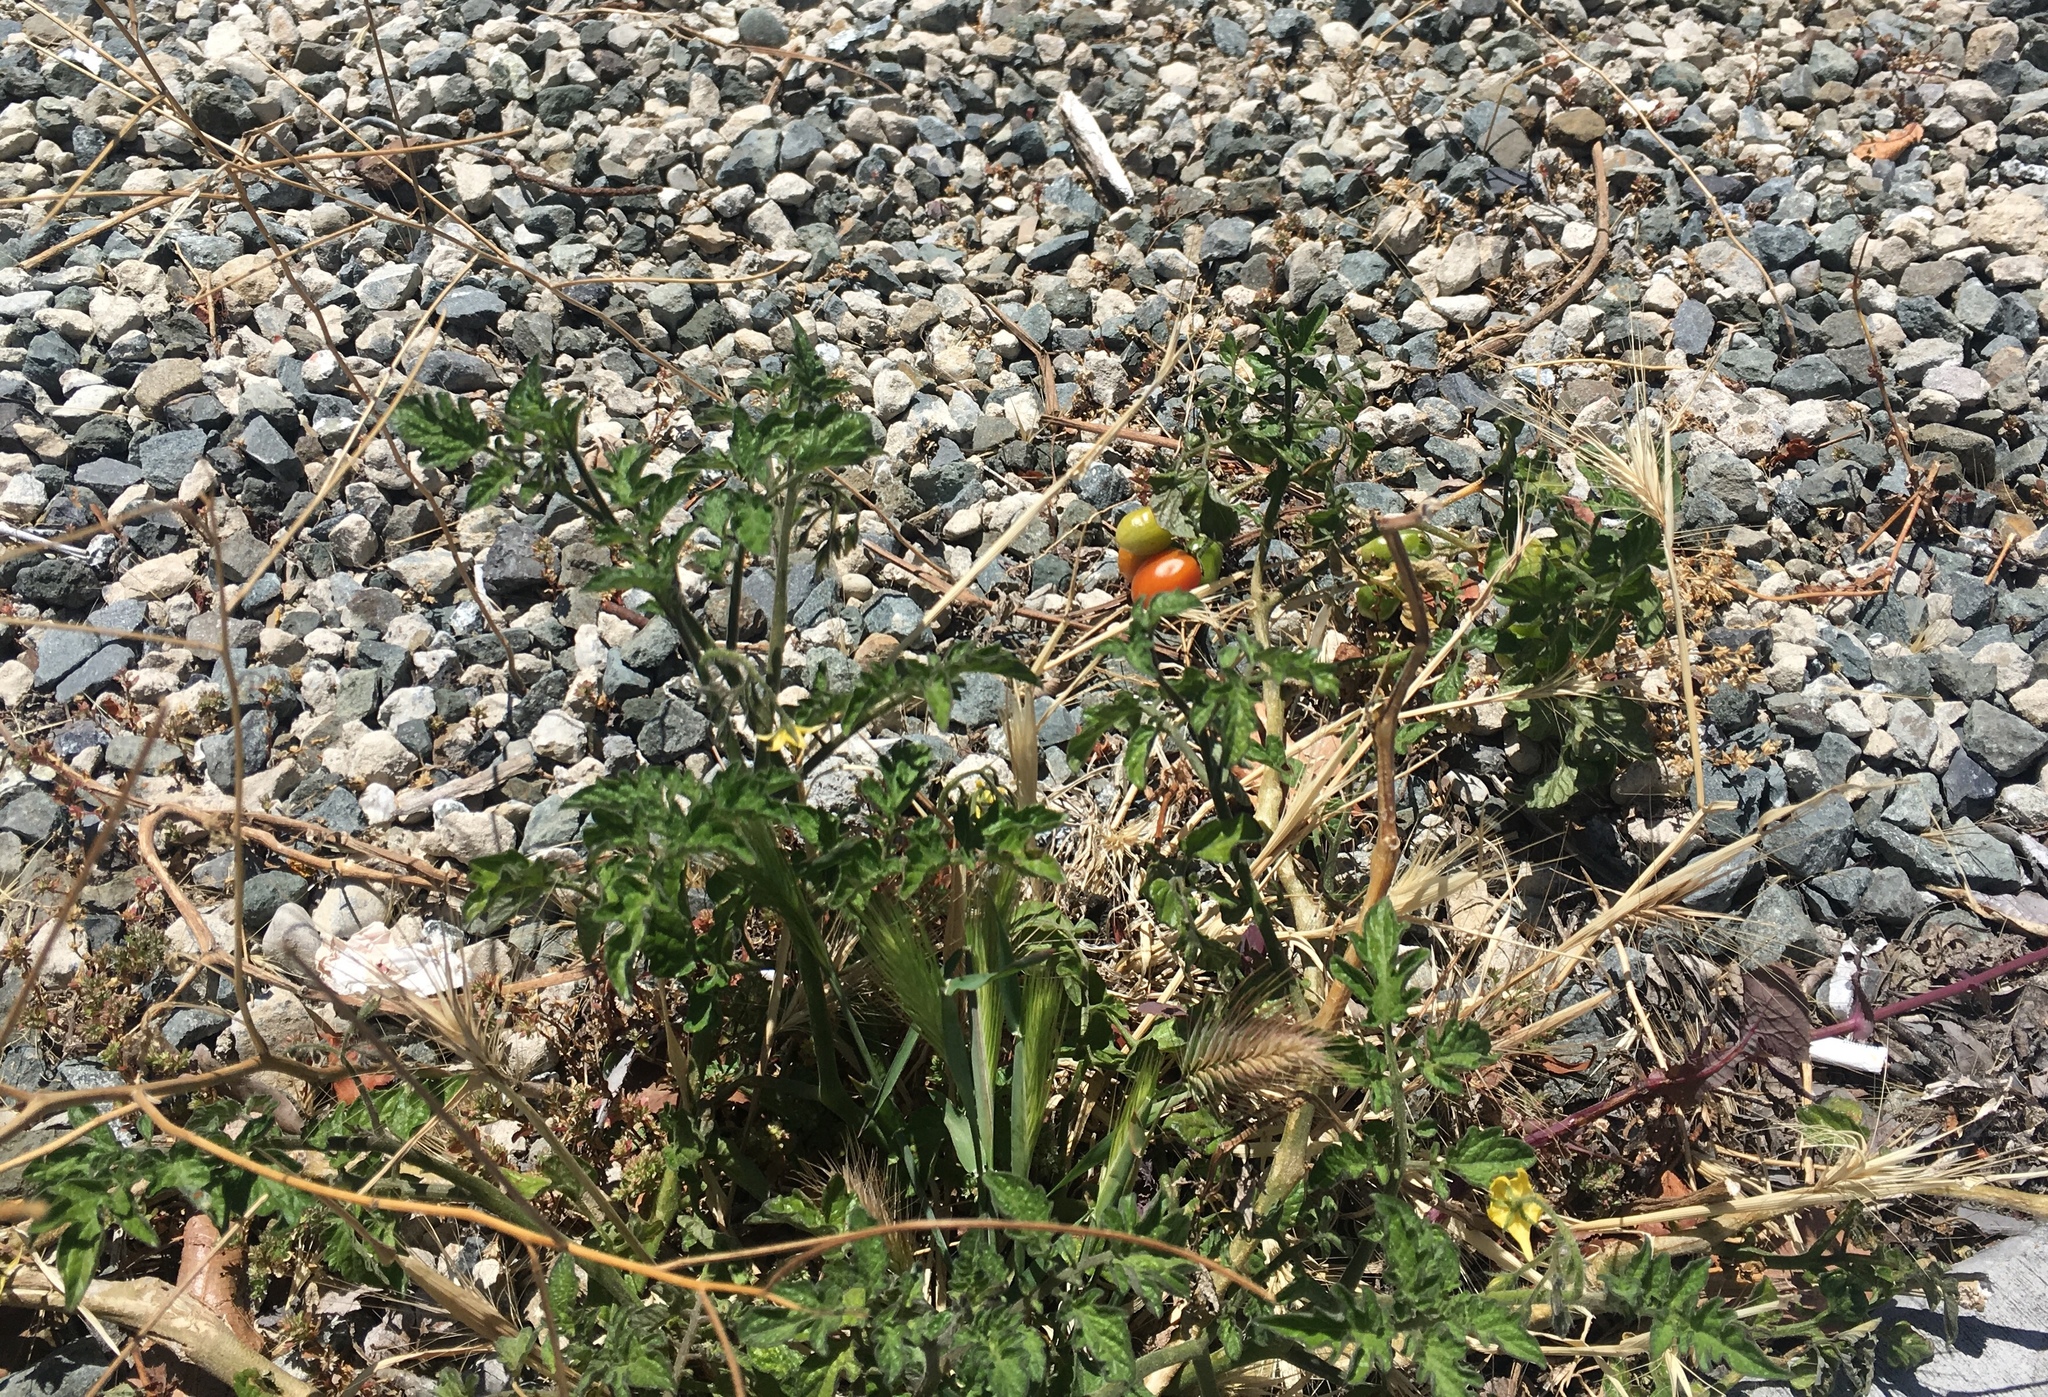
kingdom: Plantae
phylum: Tracheophyta
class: Magnoliopsida
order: Solanales
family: Solanaceae
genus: Solanum
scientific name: Solanum lycopersicum
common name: Garden tomato
